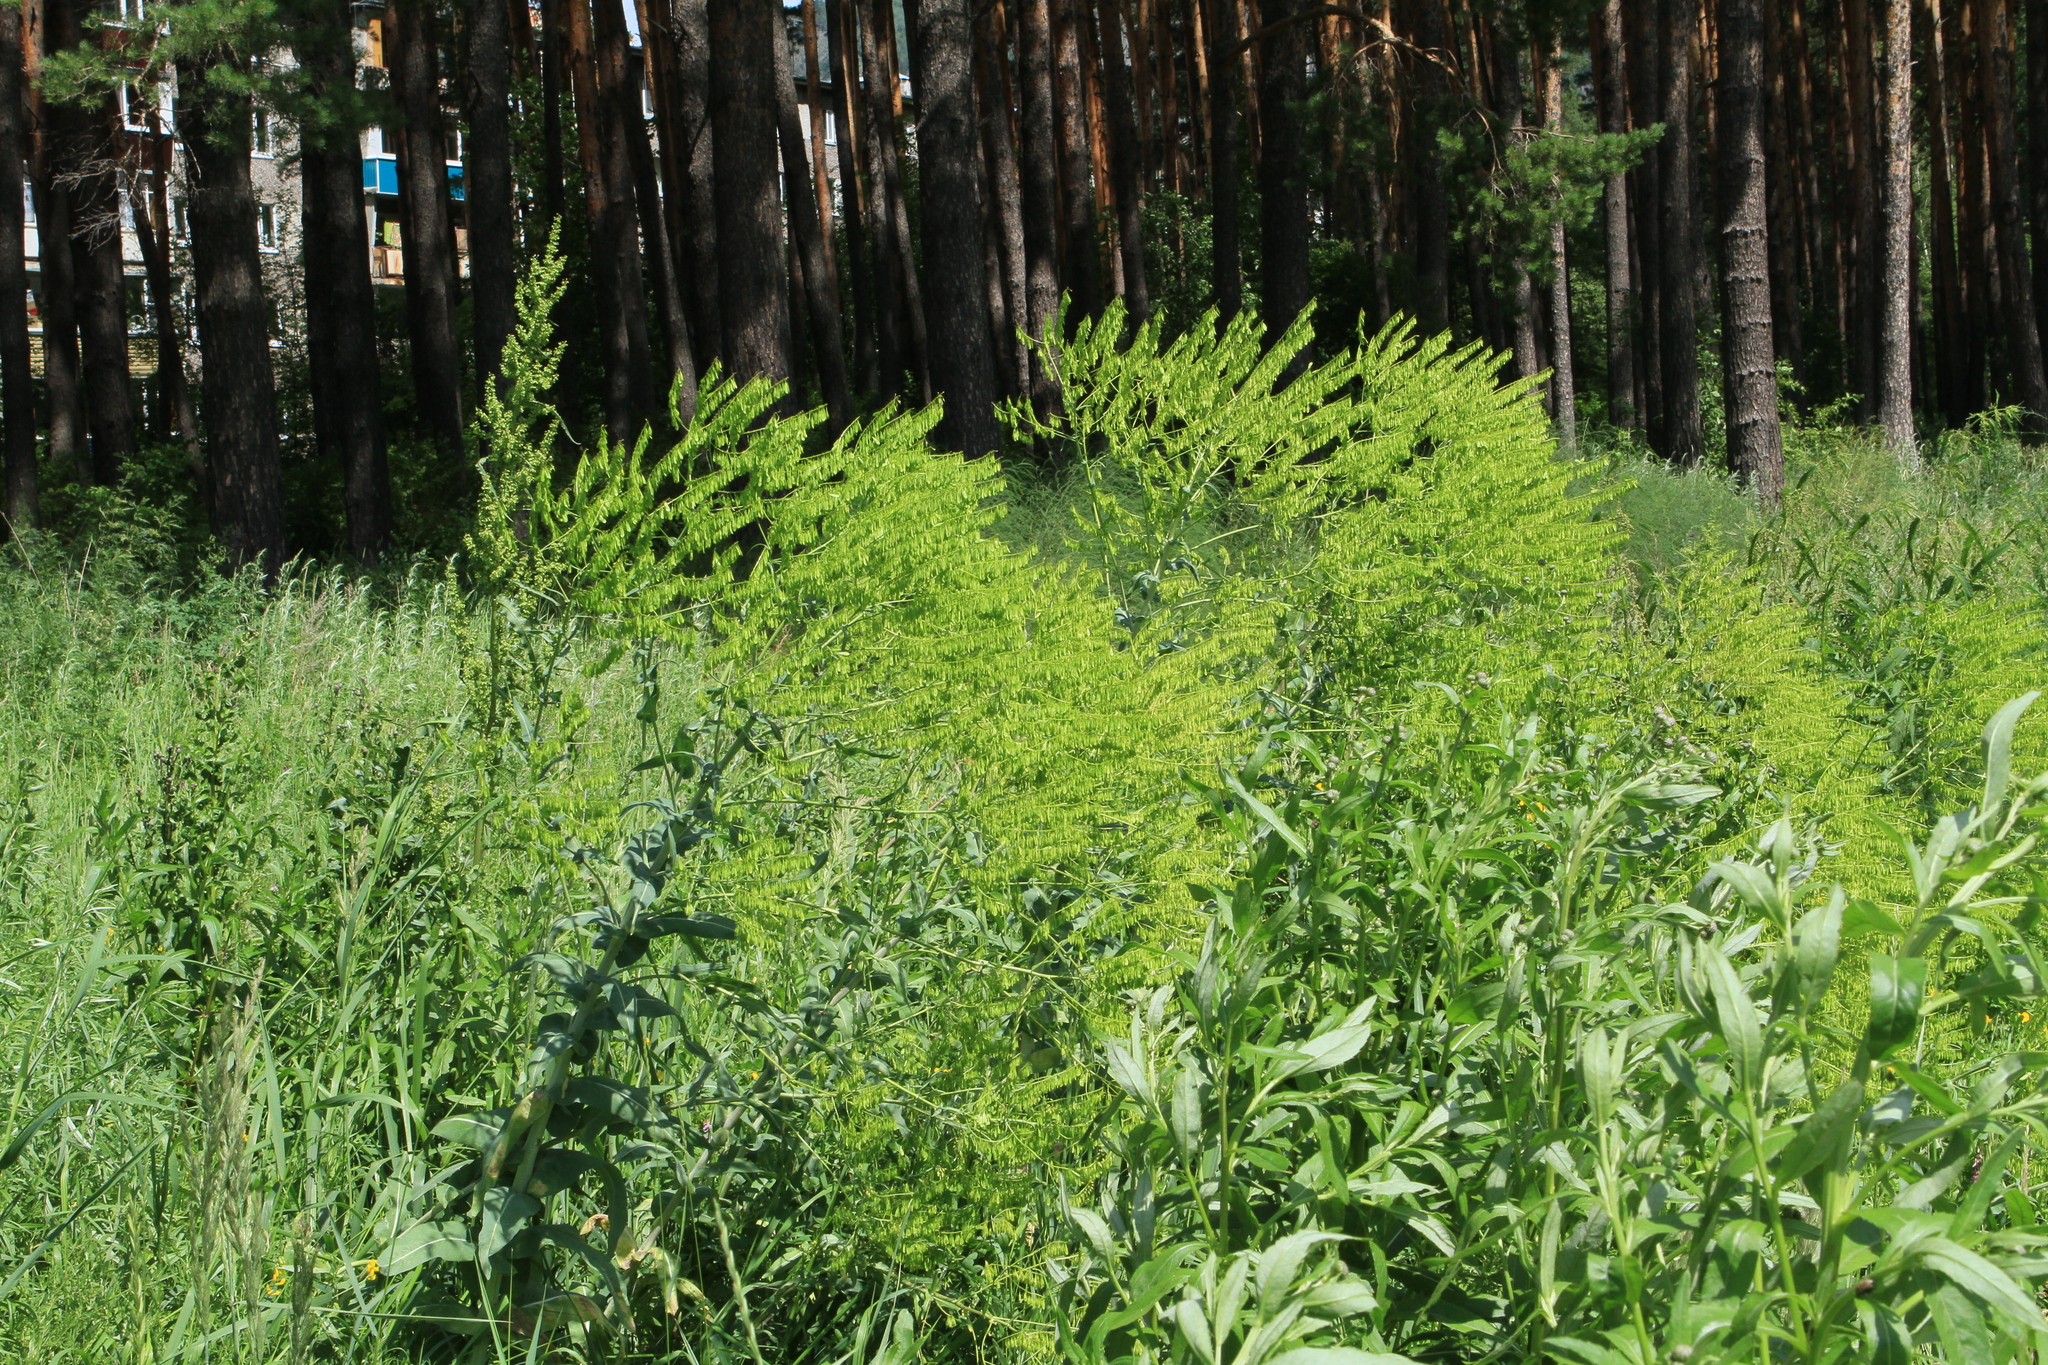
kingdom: Plantae
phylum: Tracheophyta
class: Magnoliopsida
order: Brassicales
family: Brassicaceae
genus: Isatis
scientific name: Isatis costata
